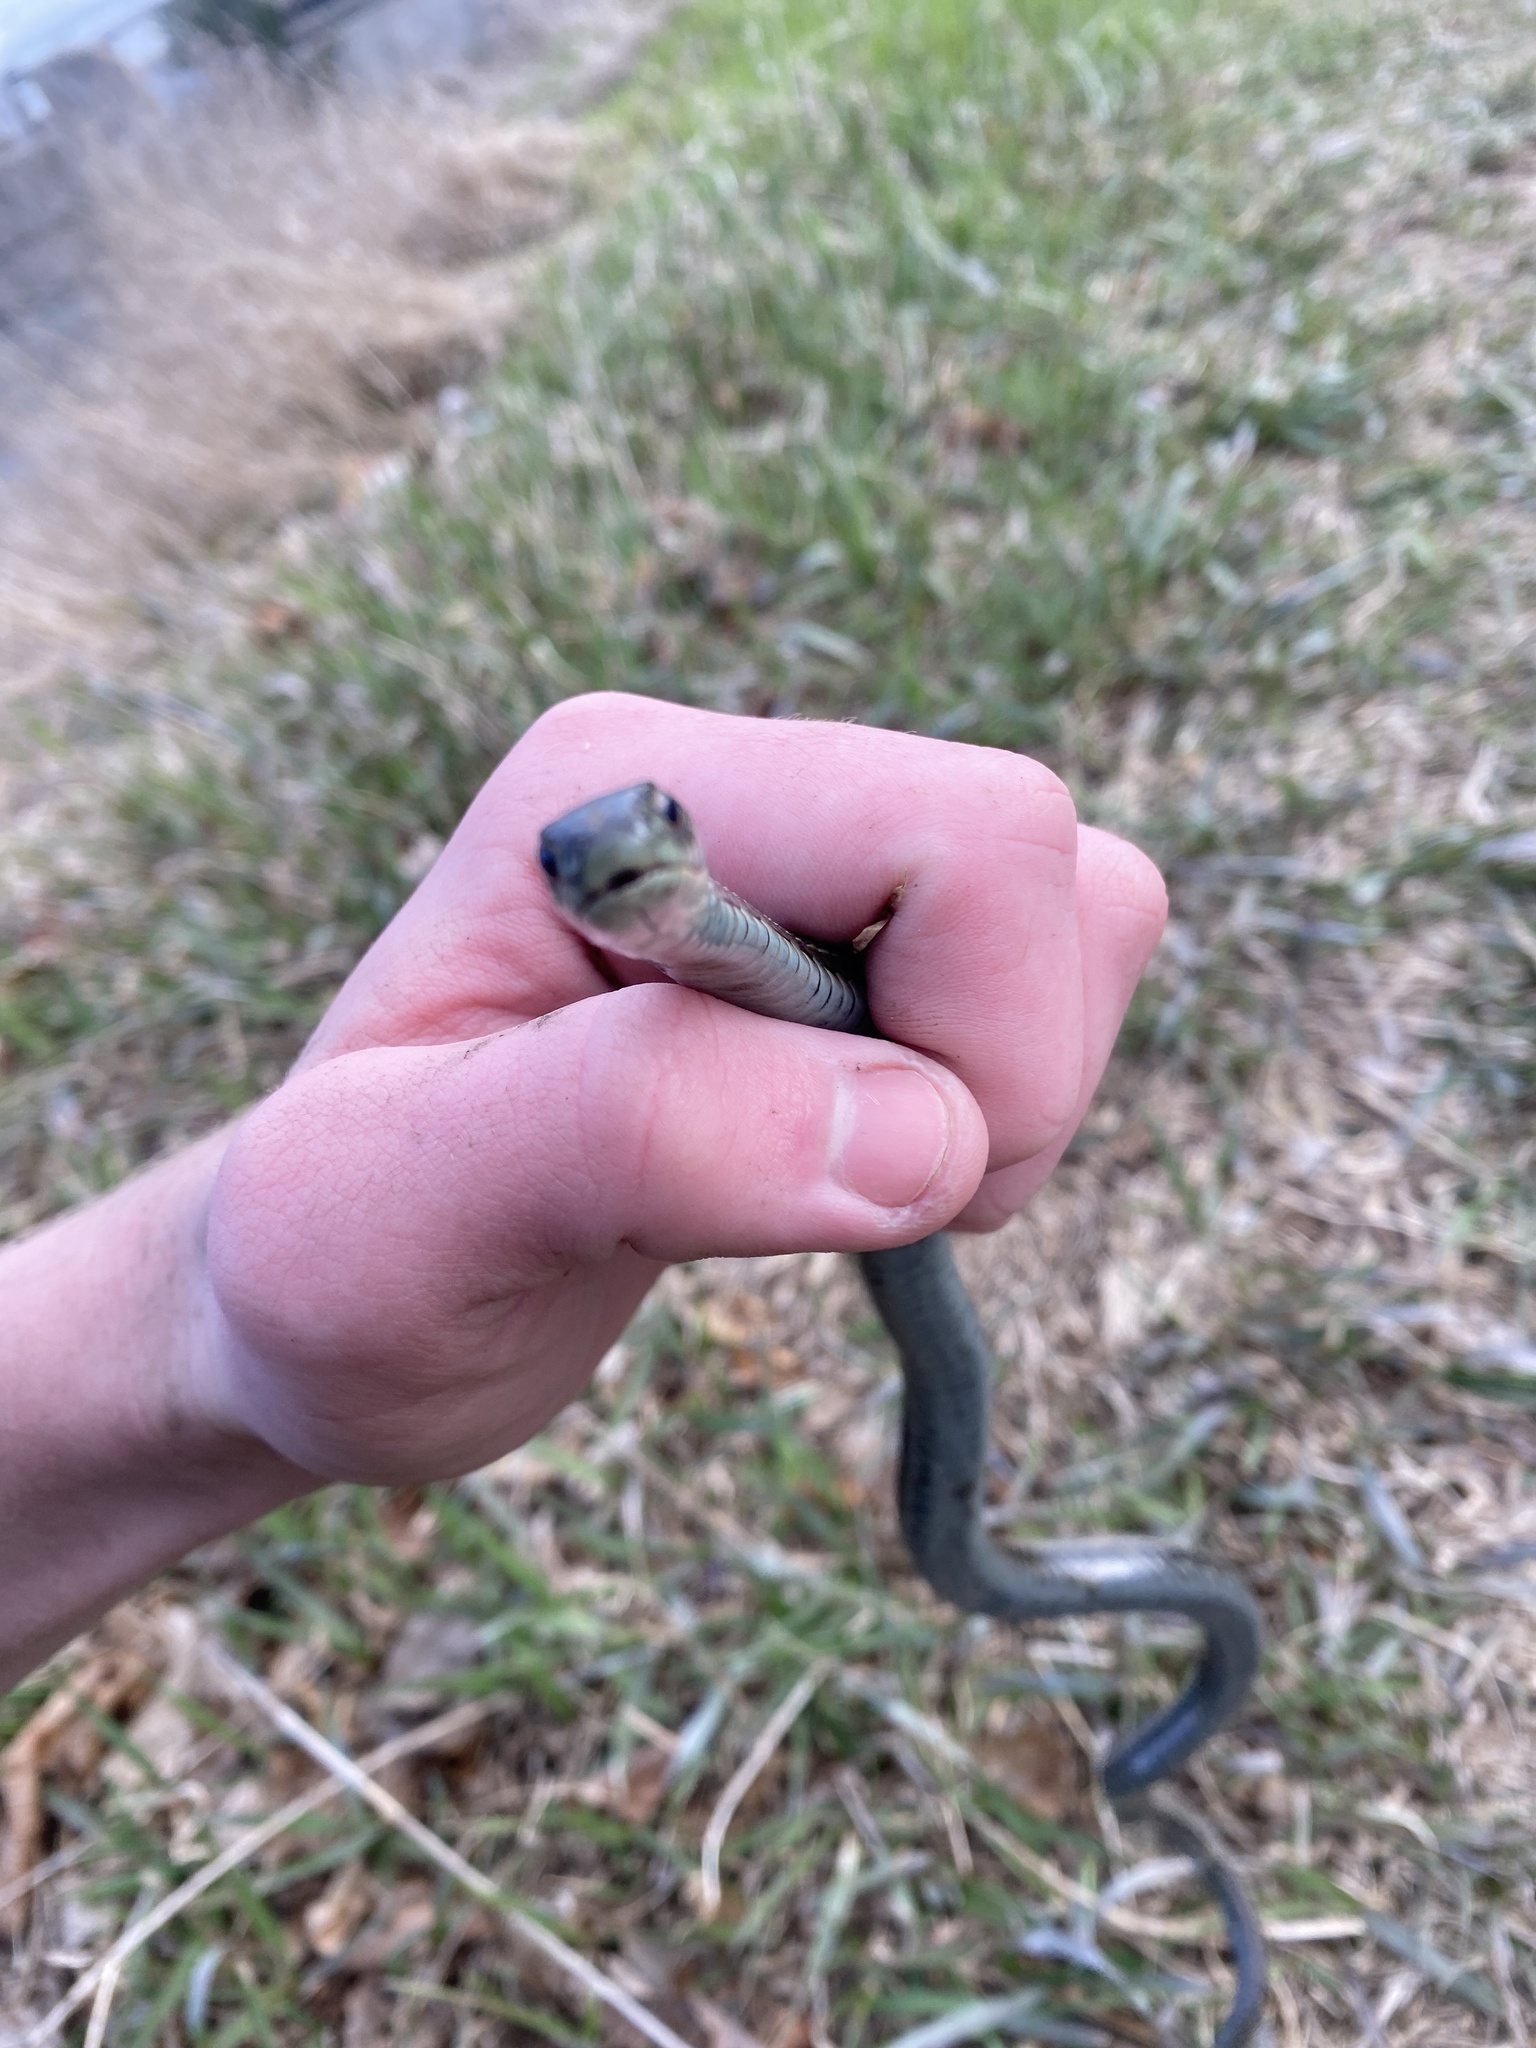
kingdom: Animalia
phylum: Chordata
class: Squamata
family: Colubridae
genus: Thamnophis
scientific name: Thamnophis sirtalis
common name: Common garter snake
